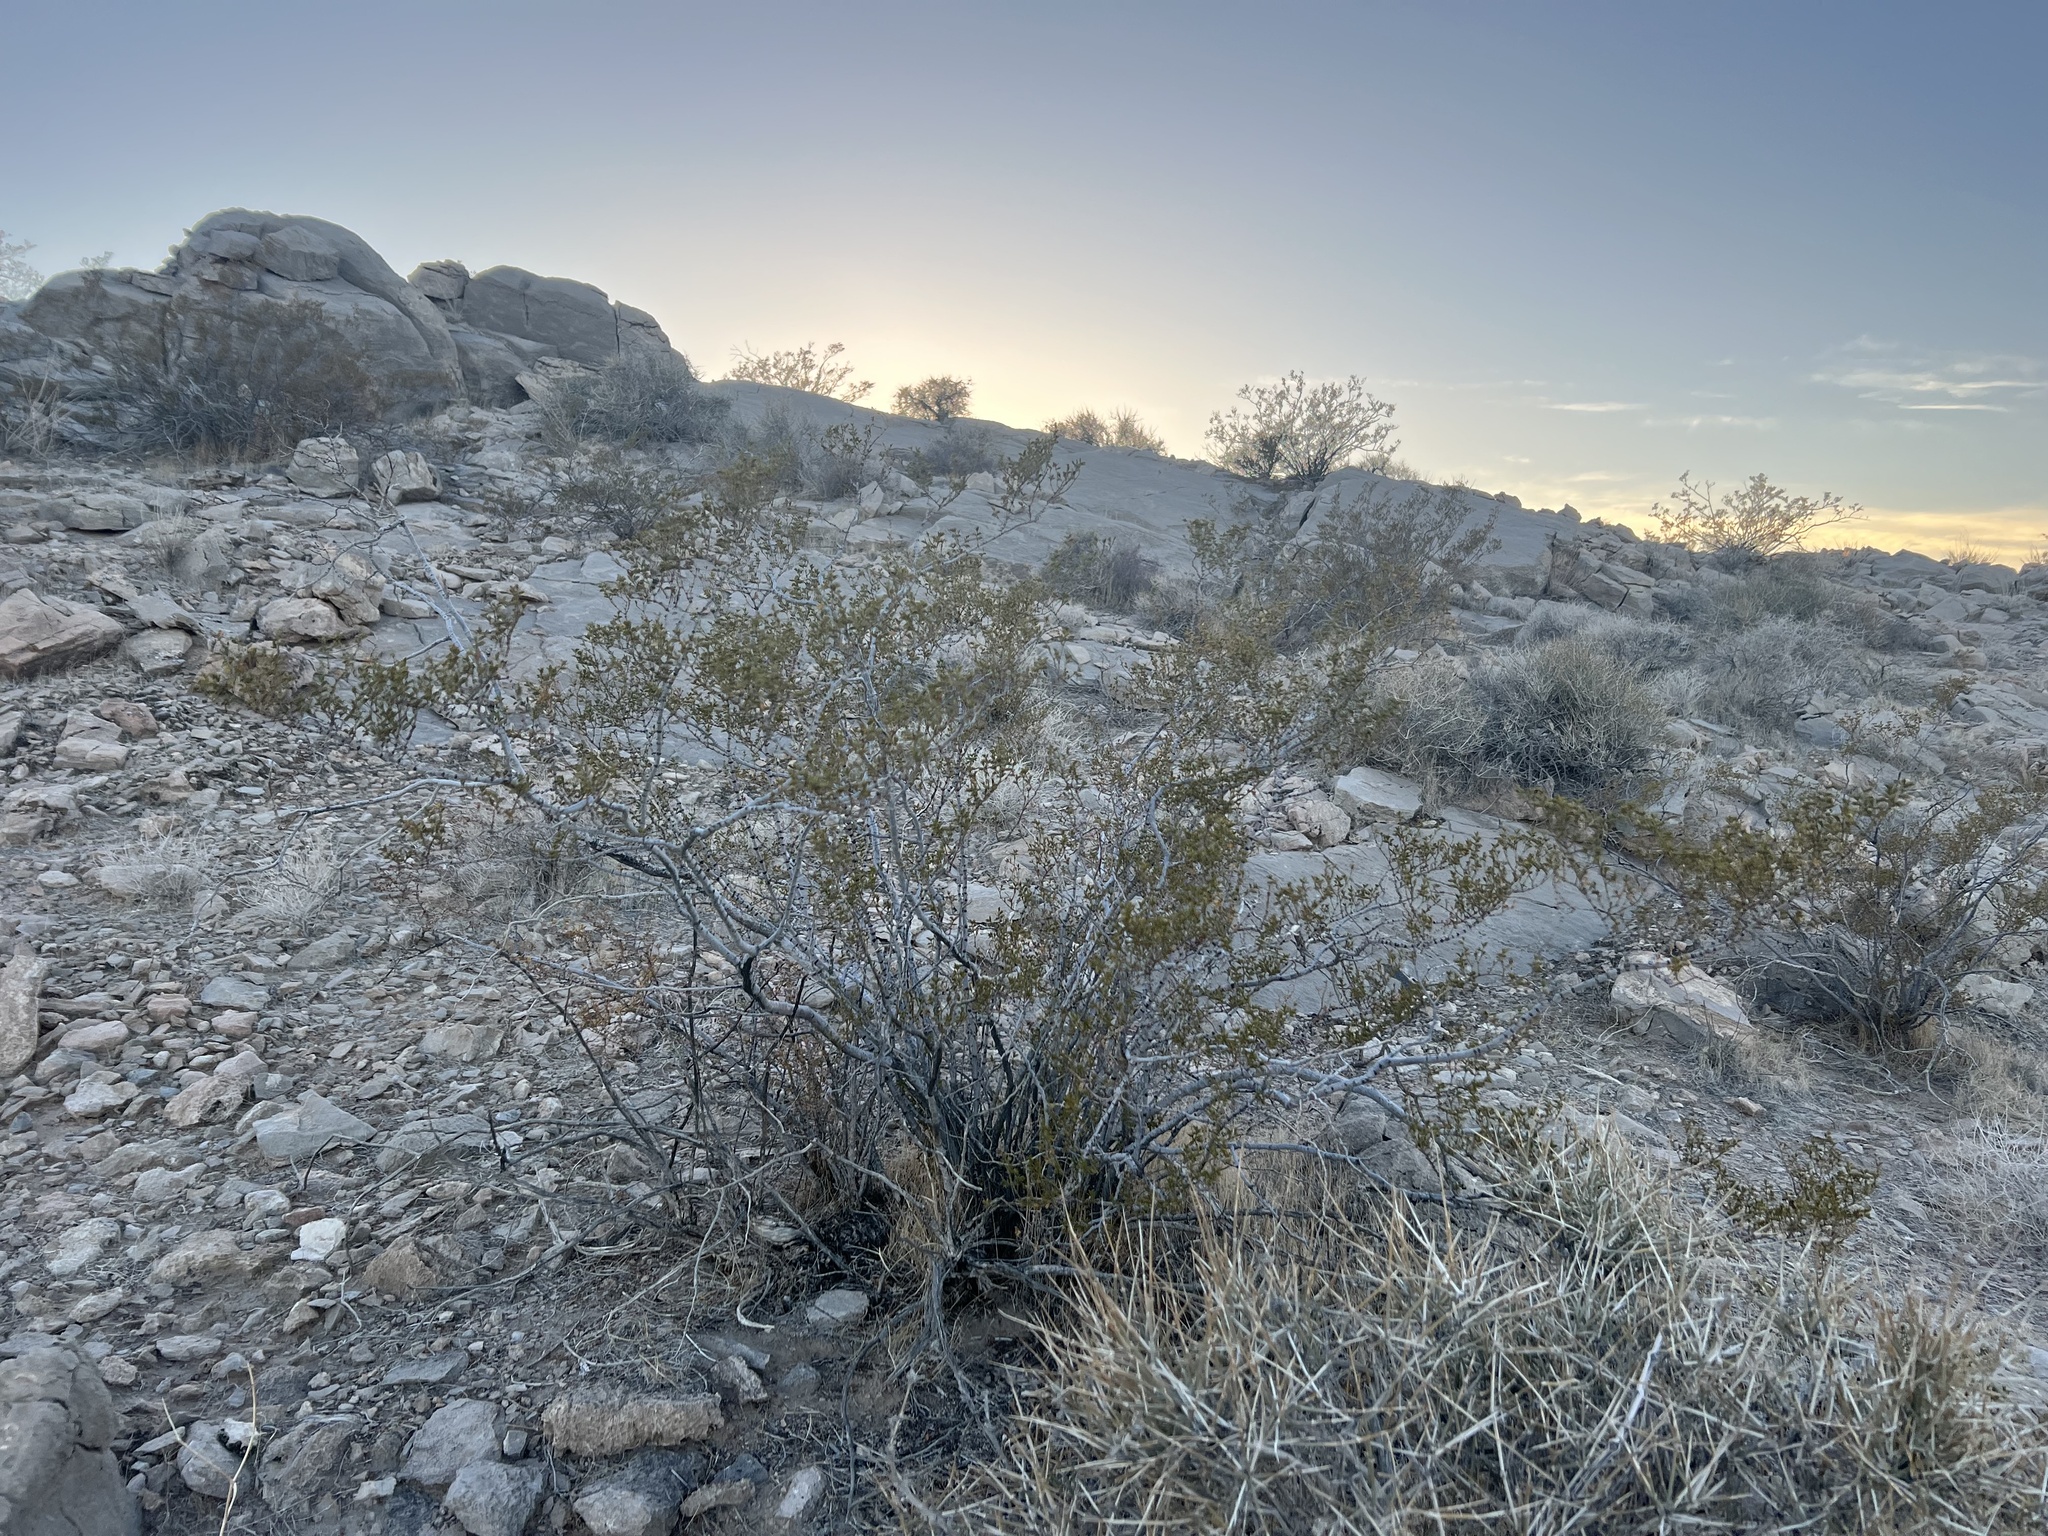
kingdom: Plantae
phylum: Tracheophyta
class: Magnoliopsida
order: Zygophyllales
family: Zygophyllaceae
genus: Larrea
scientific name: Larrea tridentata
